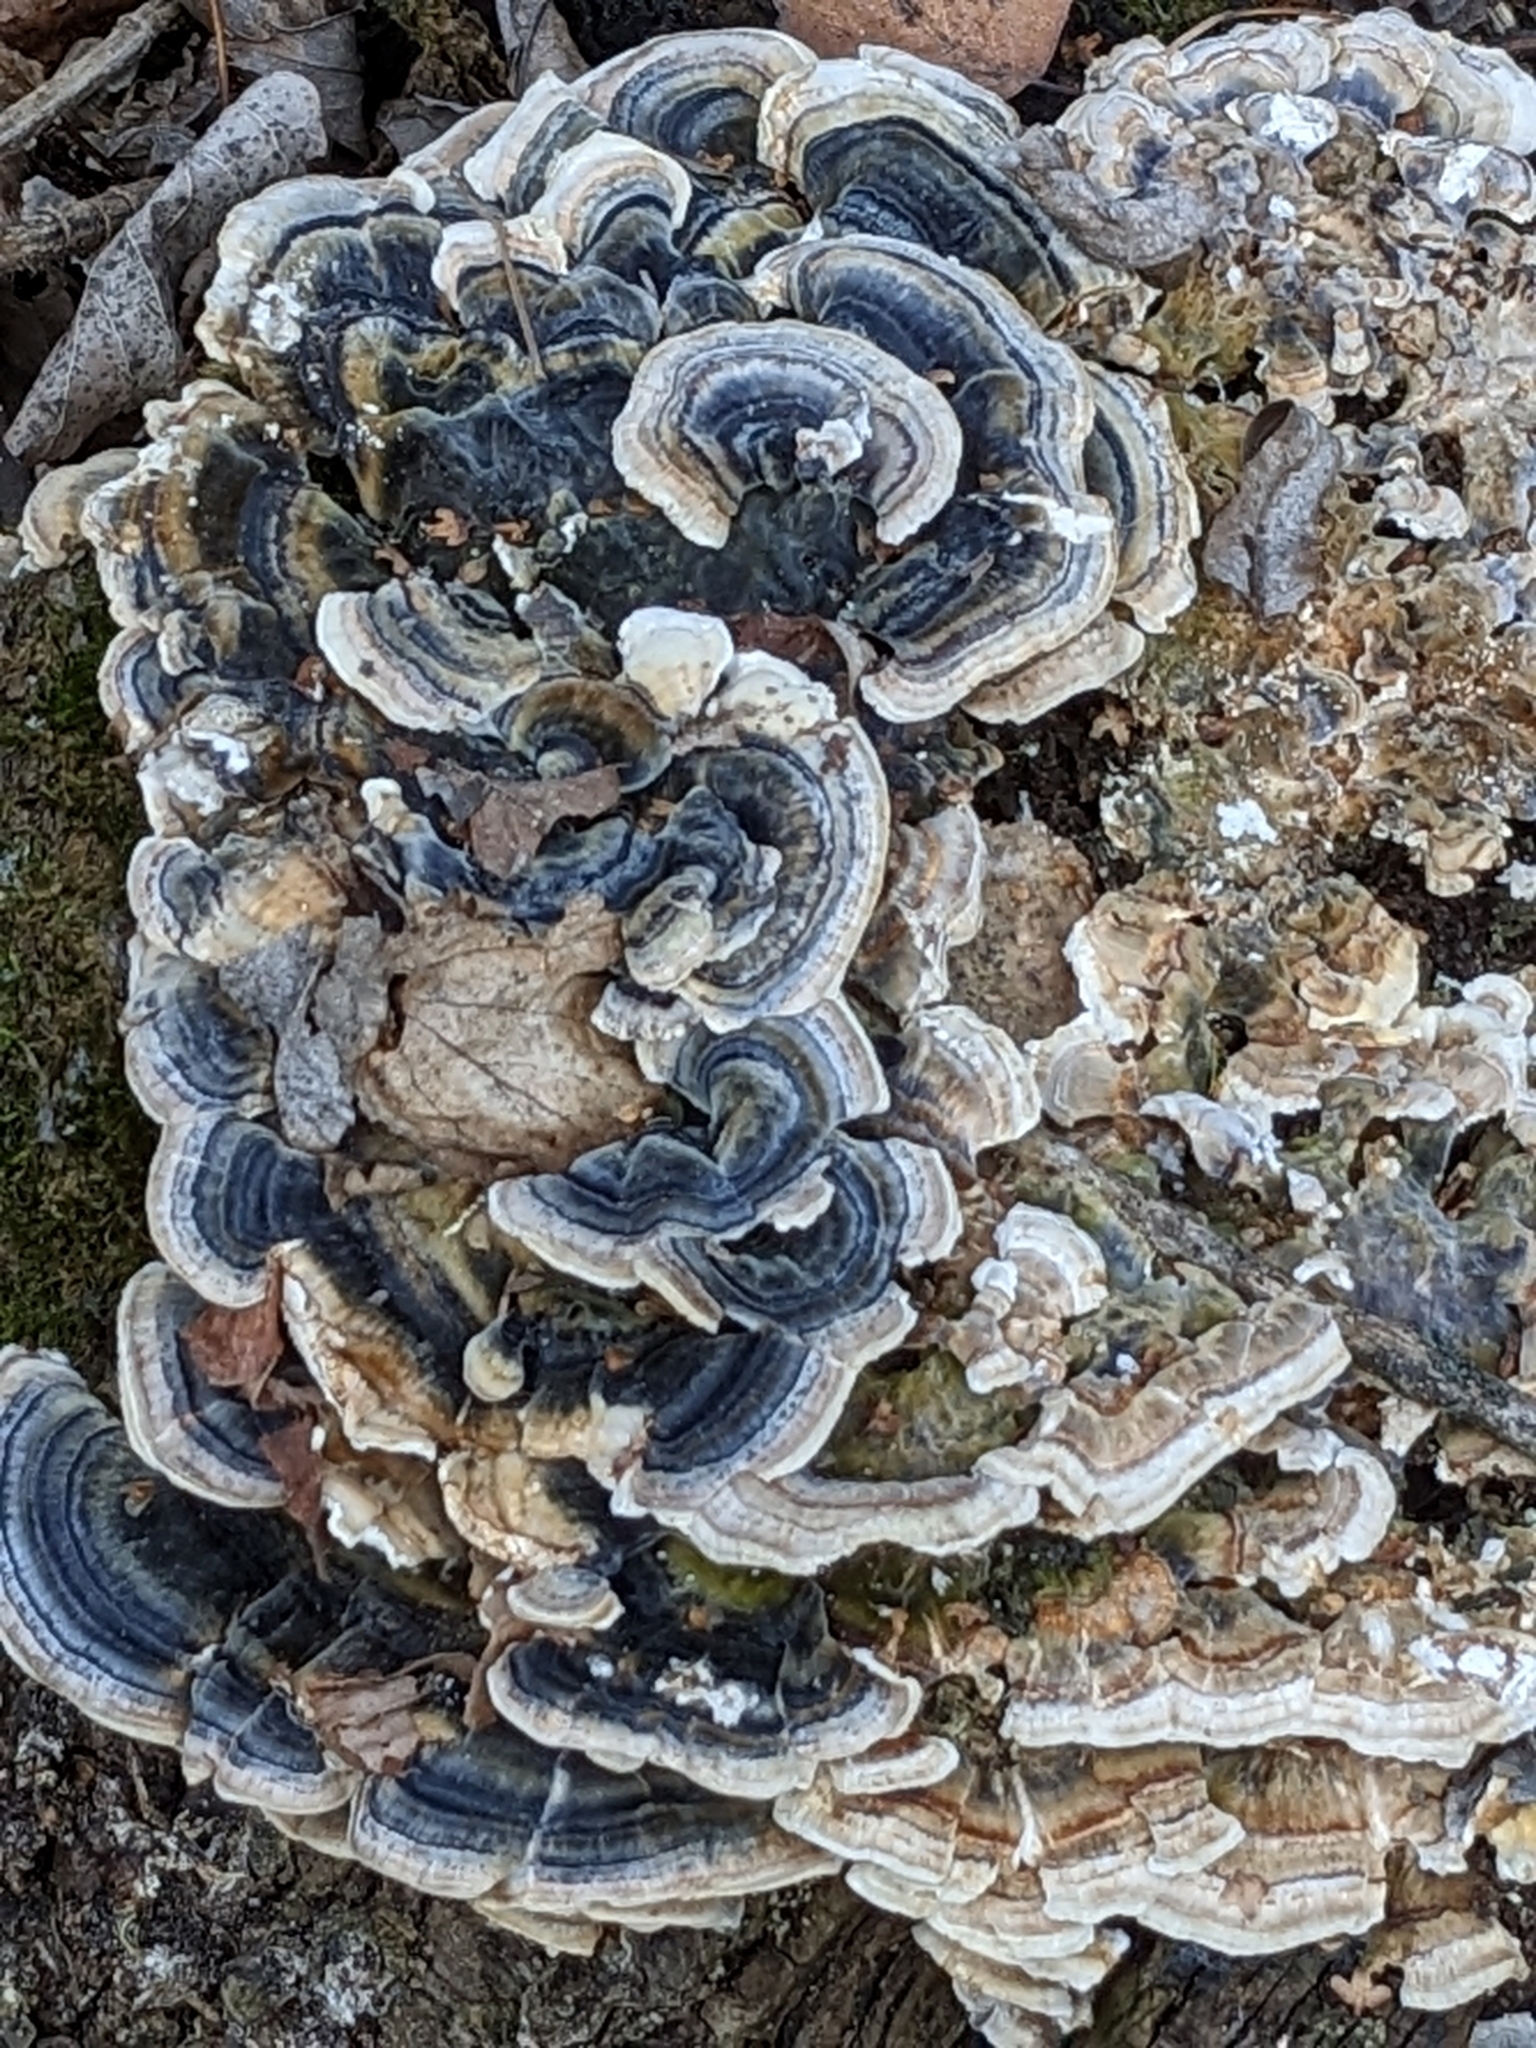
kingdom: Fungi
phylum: Basidiomycota
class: Agaricomycetes
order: Polyporales
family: Polyporaceae
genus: Trametes
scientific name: Trametes versicolor
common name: Turkeytail
